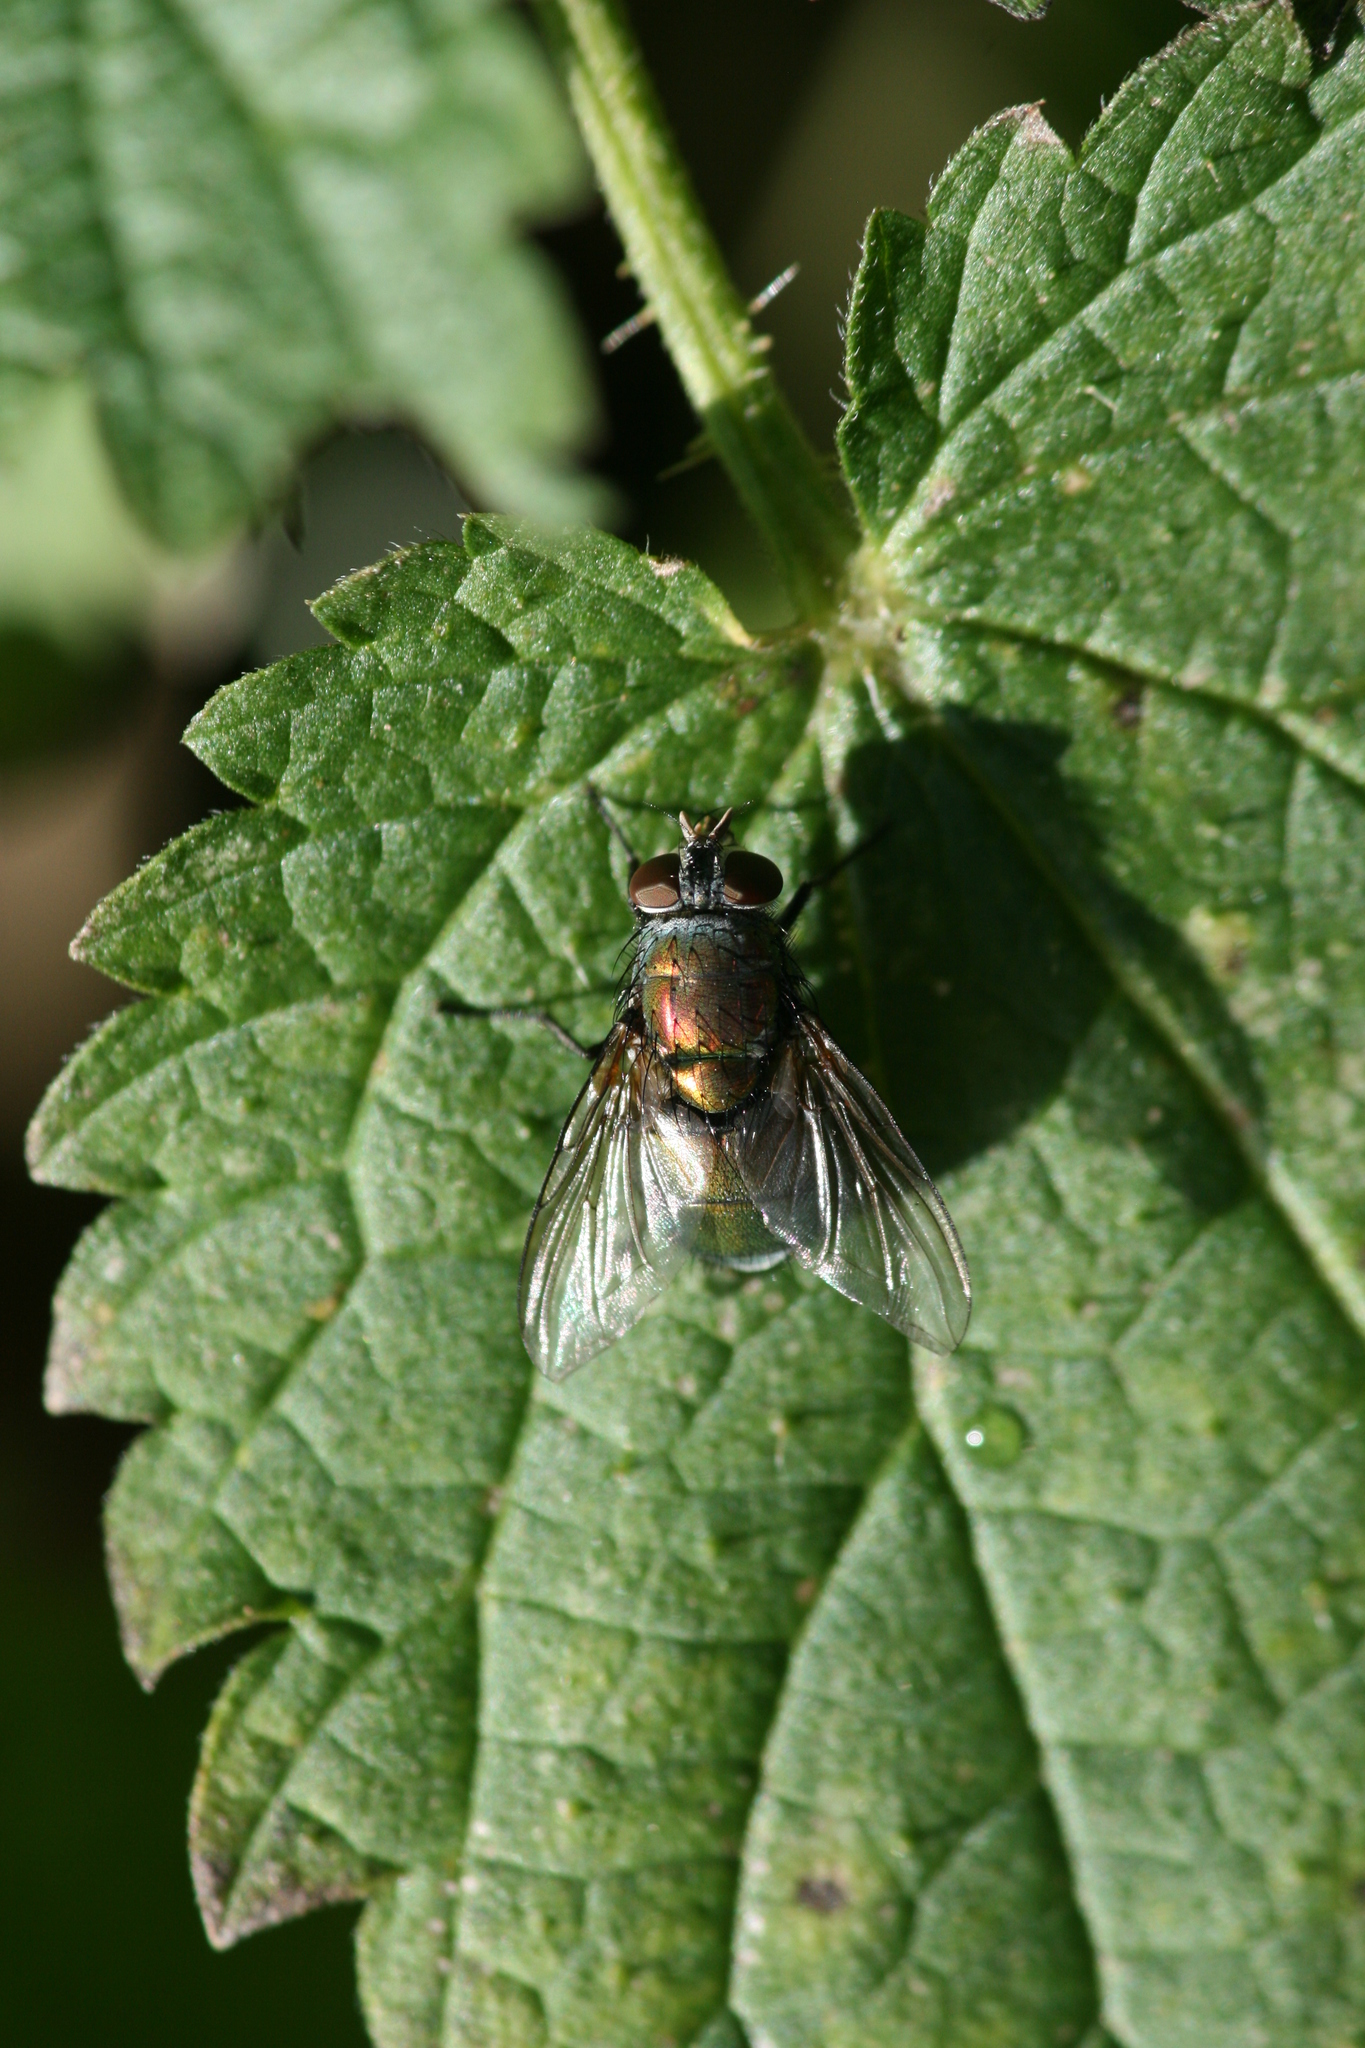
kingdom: Animalia
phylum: Arthropoda
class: Insecta
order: Diptera
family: Calliphoridae
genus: Lucilia
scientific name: Lucilia caesar
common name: Blow fly
